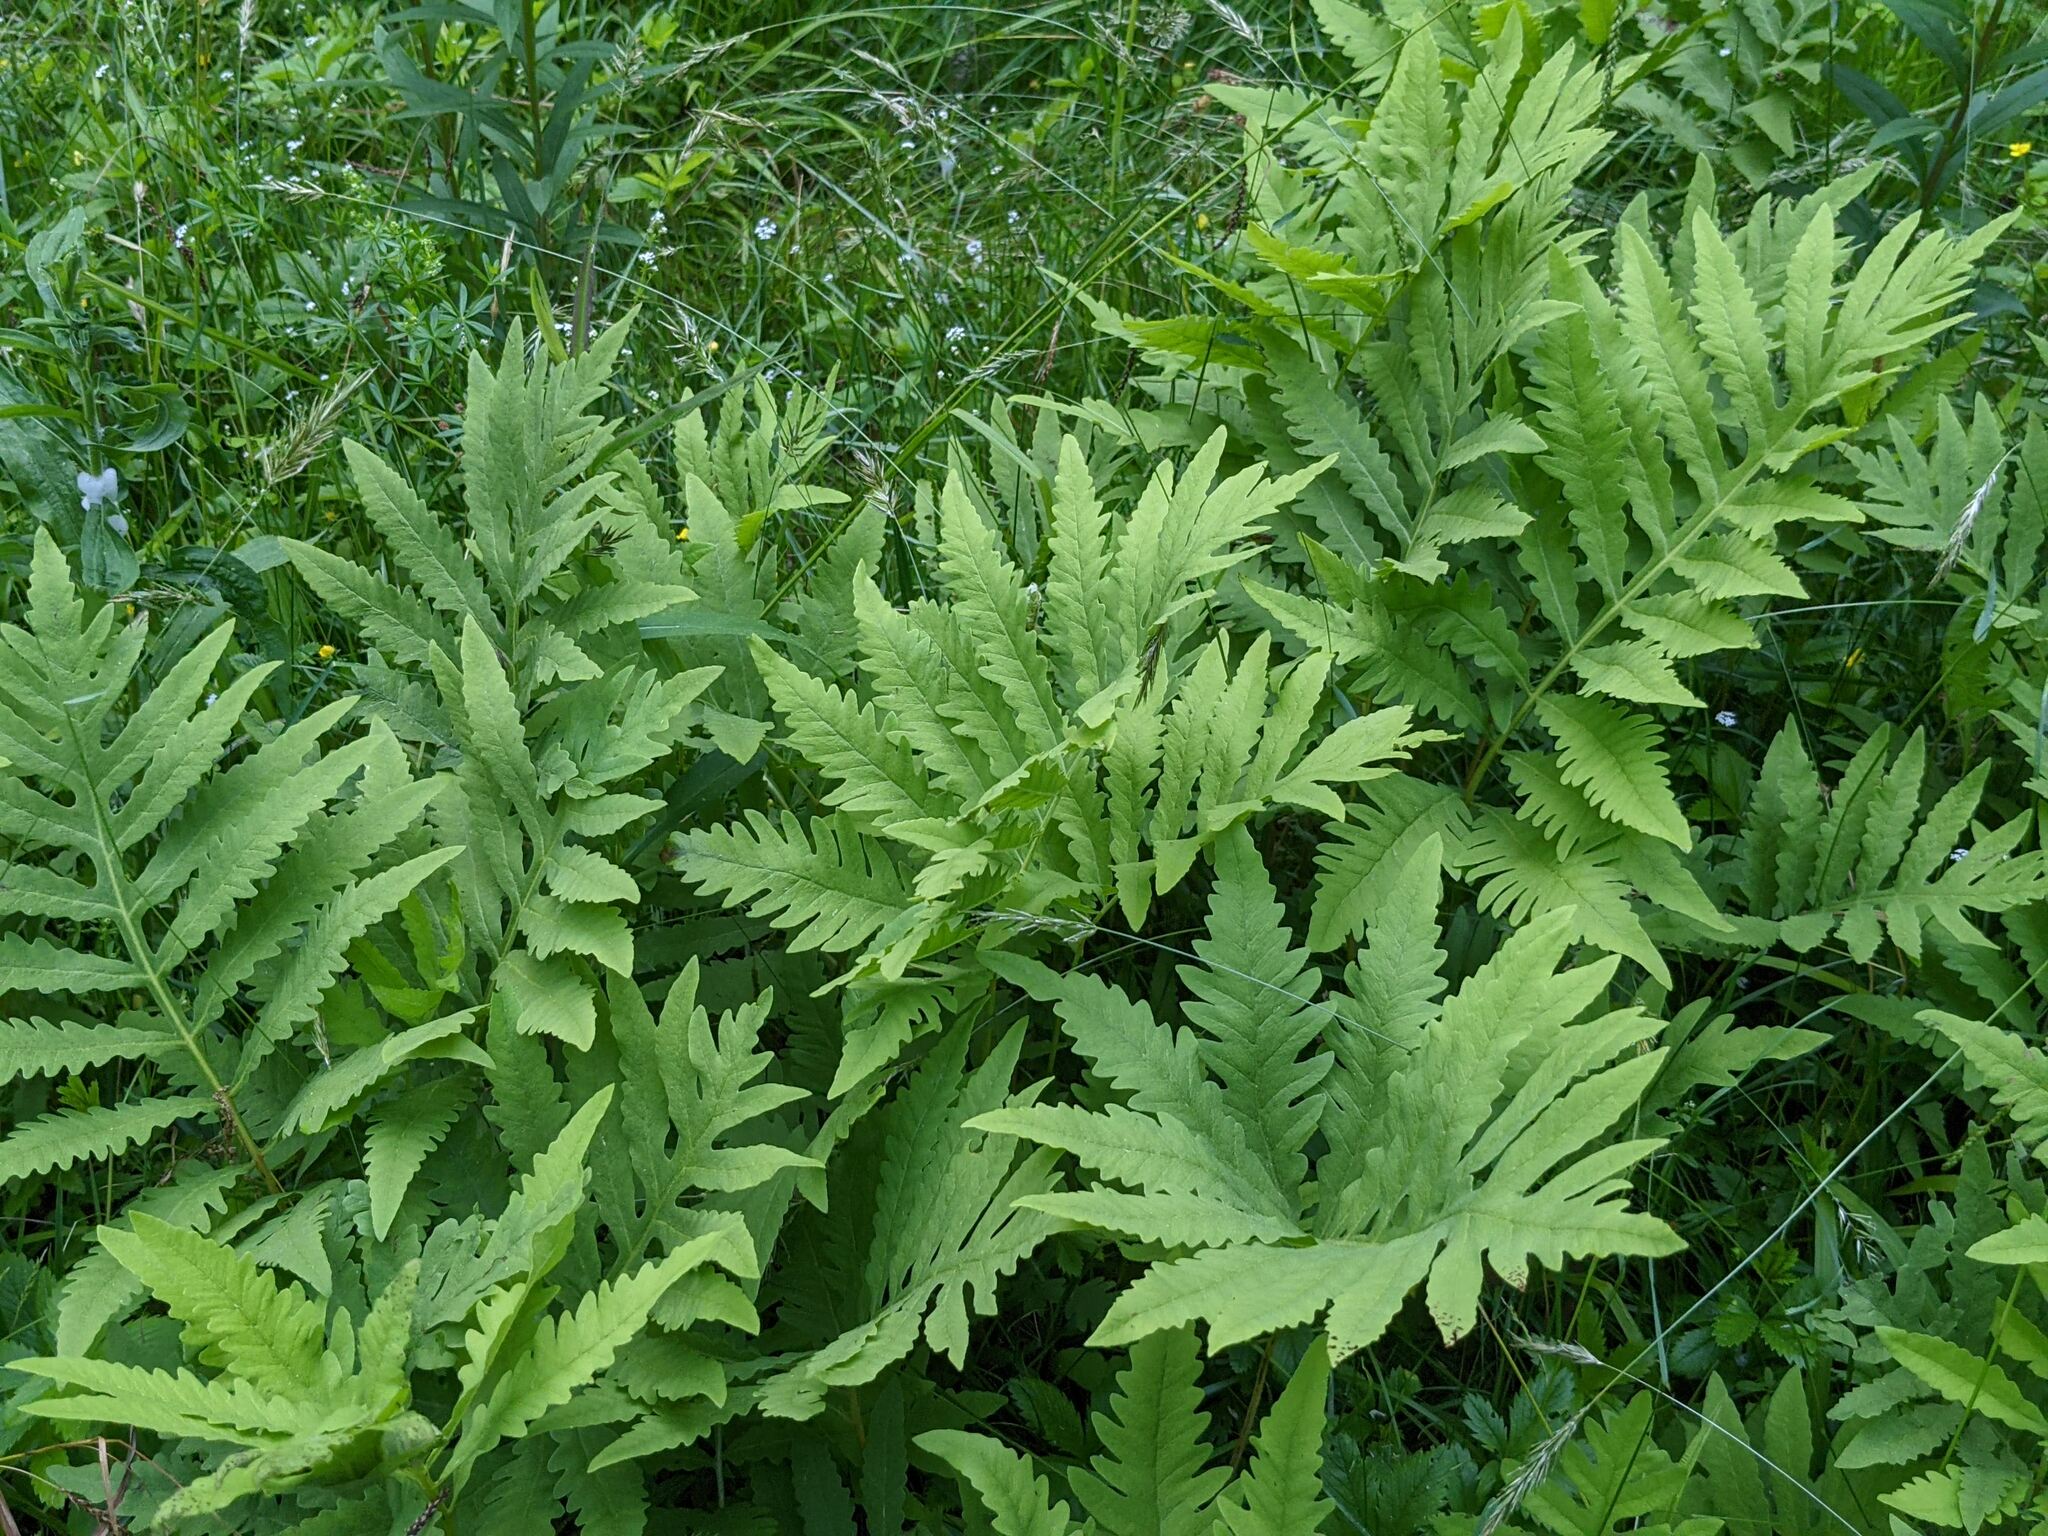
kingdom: Plantae
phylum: Tracheophyta
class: Polypodiopsida
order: Polypodiales
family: Onocleaceae
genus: Onoclea
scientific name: Onoclea sensibilis
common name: Sensitive fern
